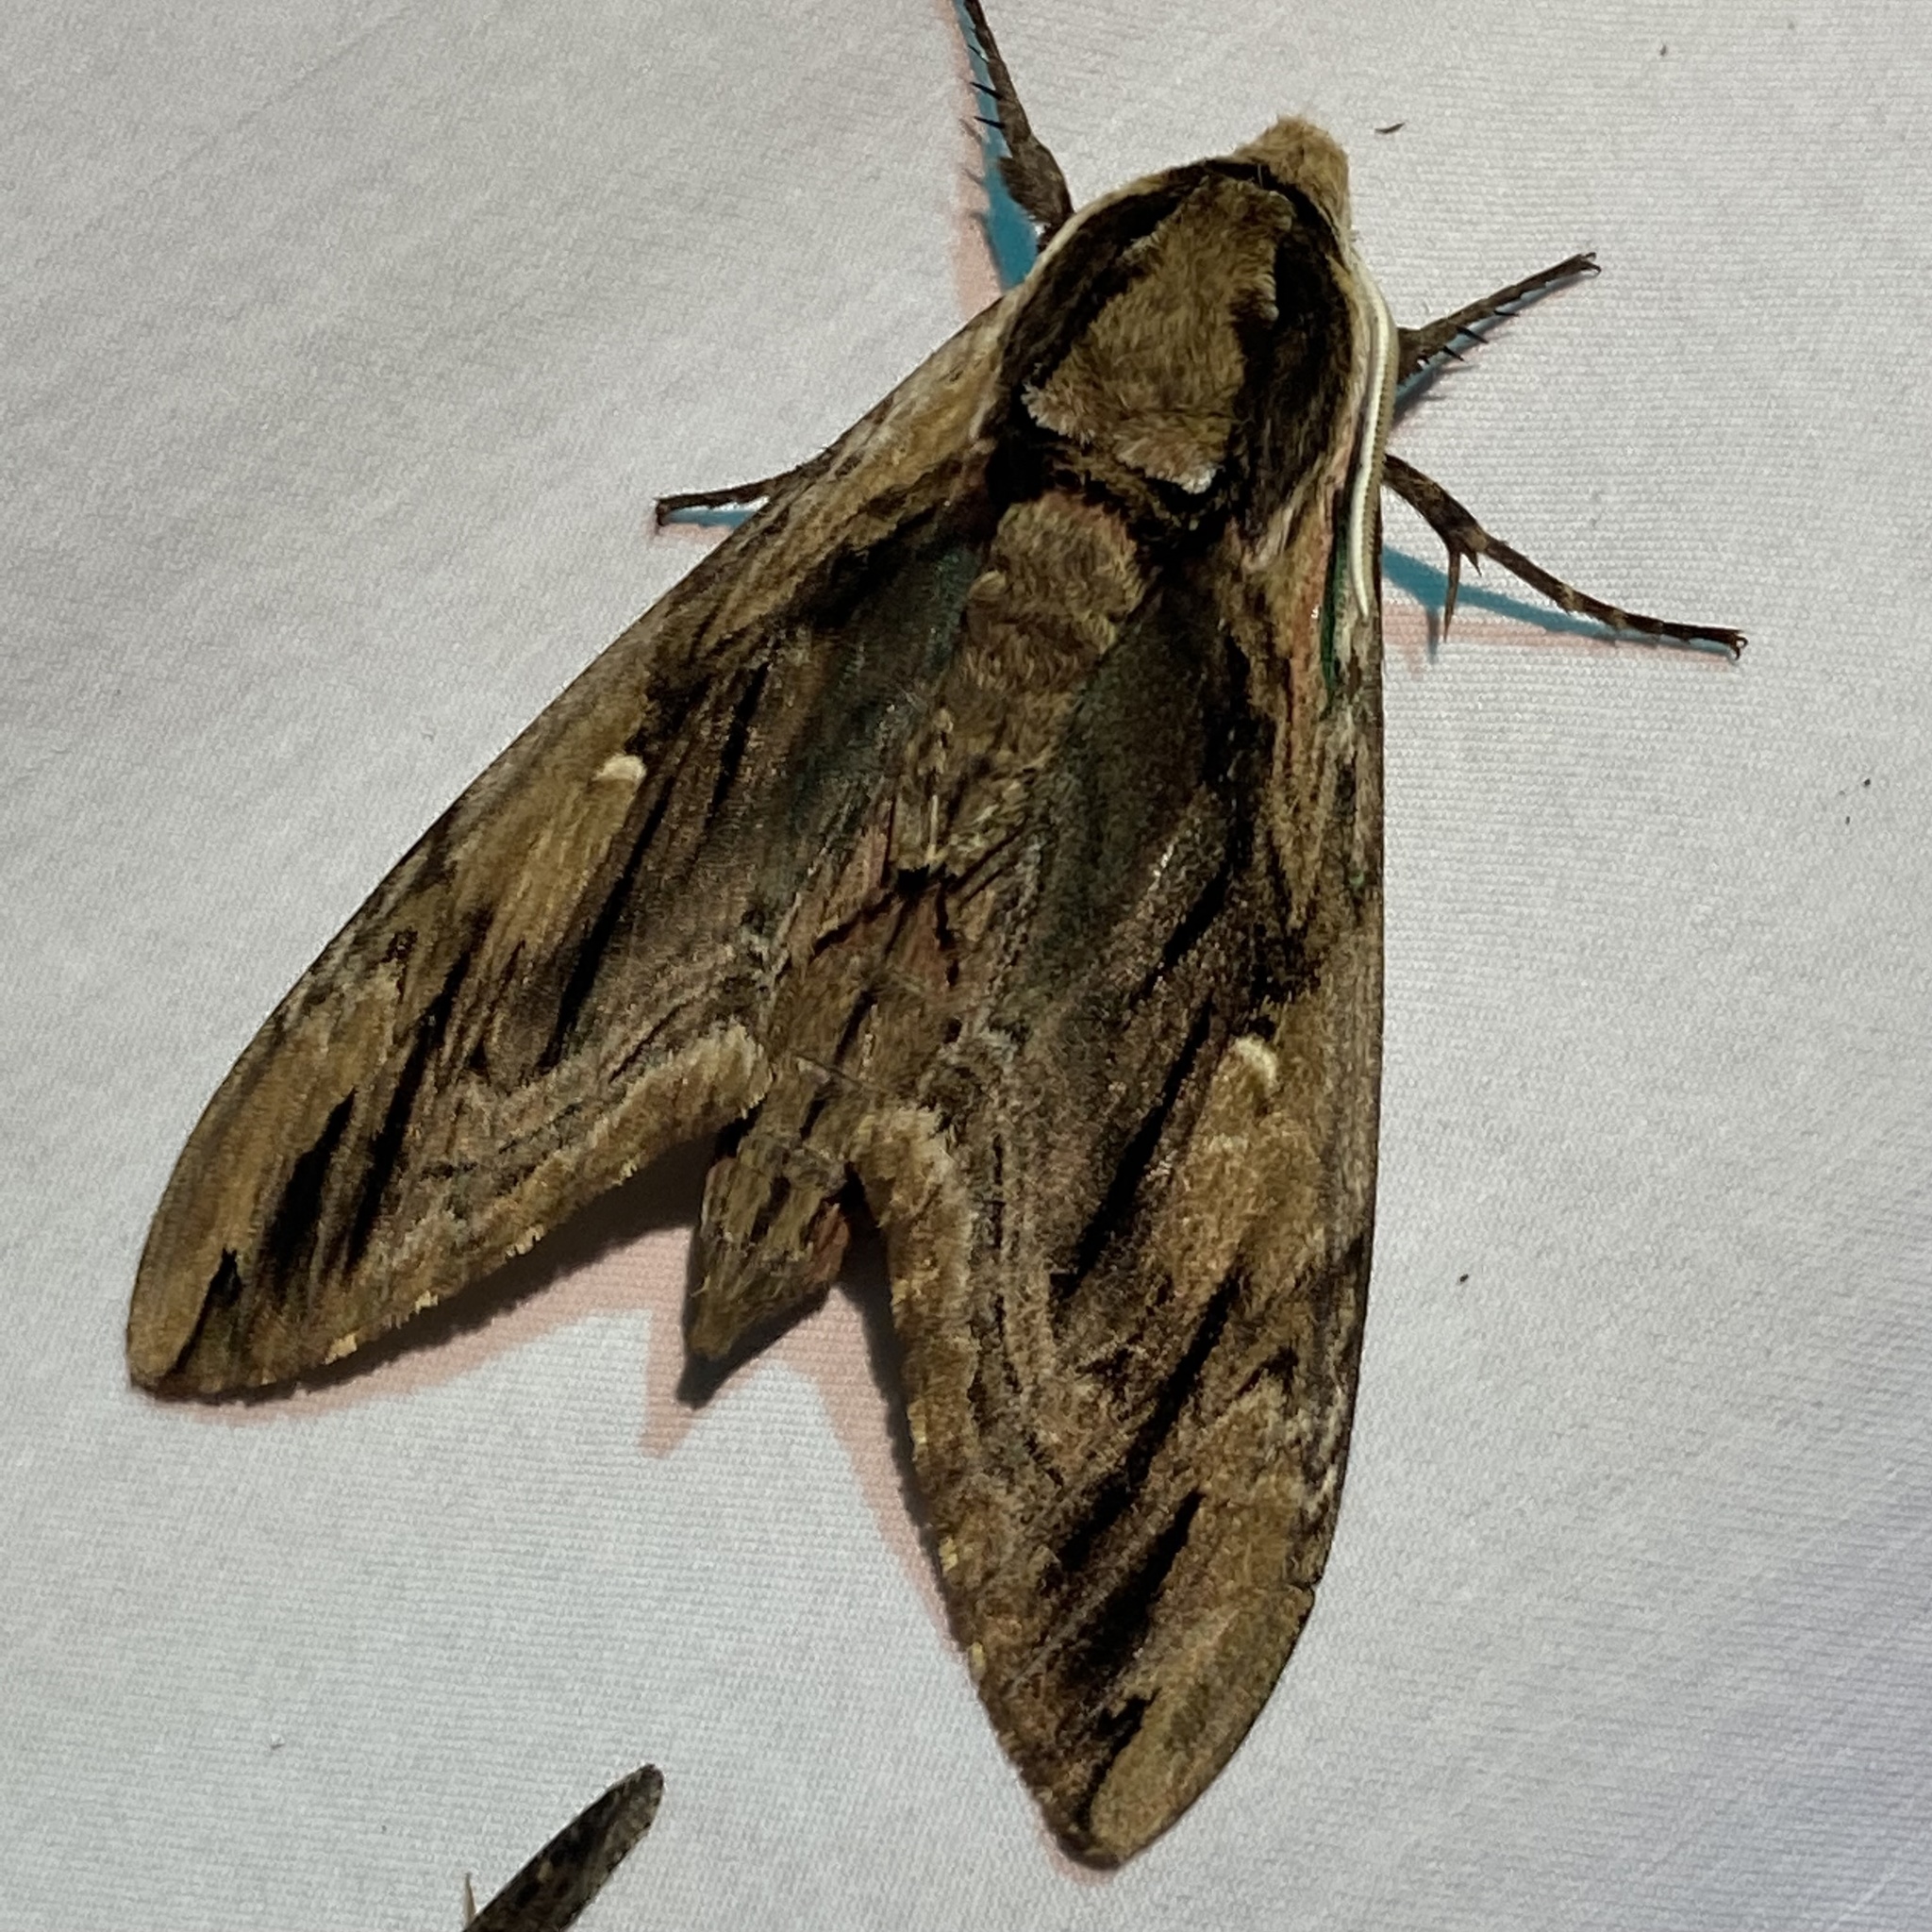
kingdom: Animalia
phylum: Arthropoda
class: Insecta
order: Lepidoptera
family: Sphingidae
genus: Ceratomia
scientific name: Ceratomia amyntor
